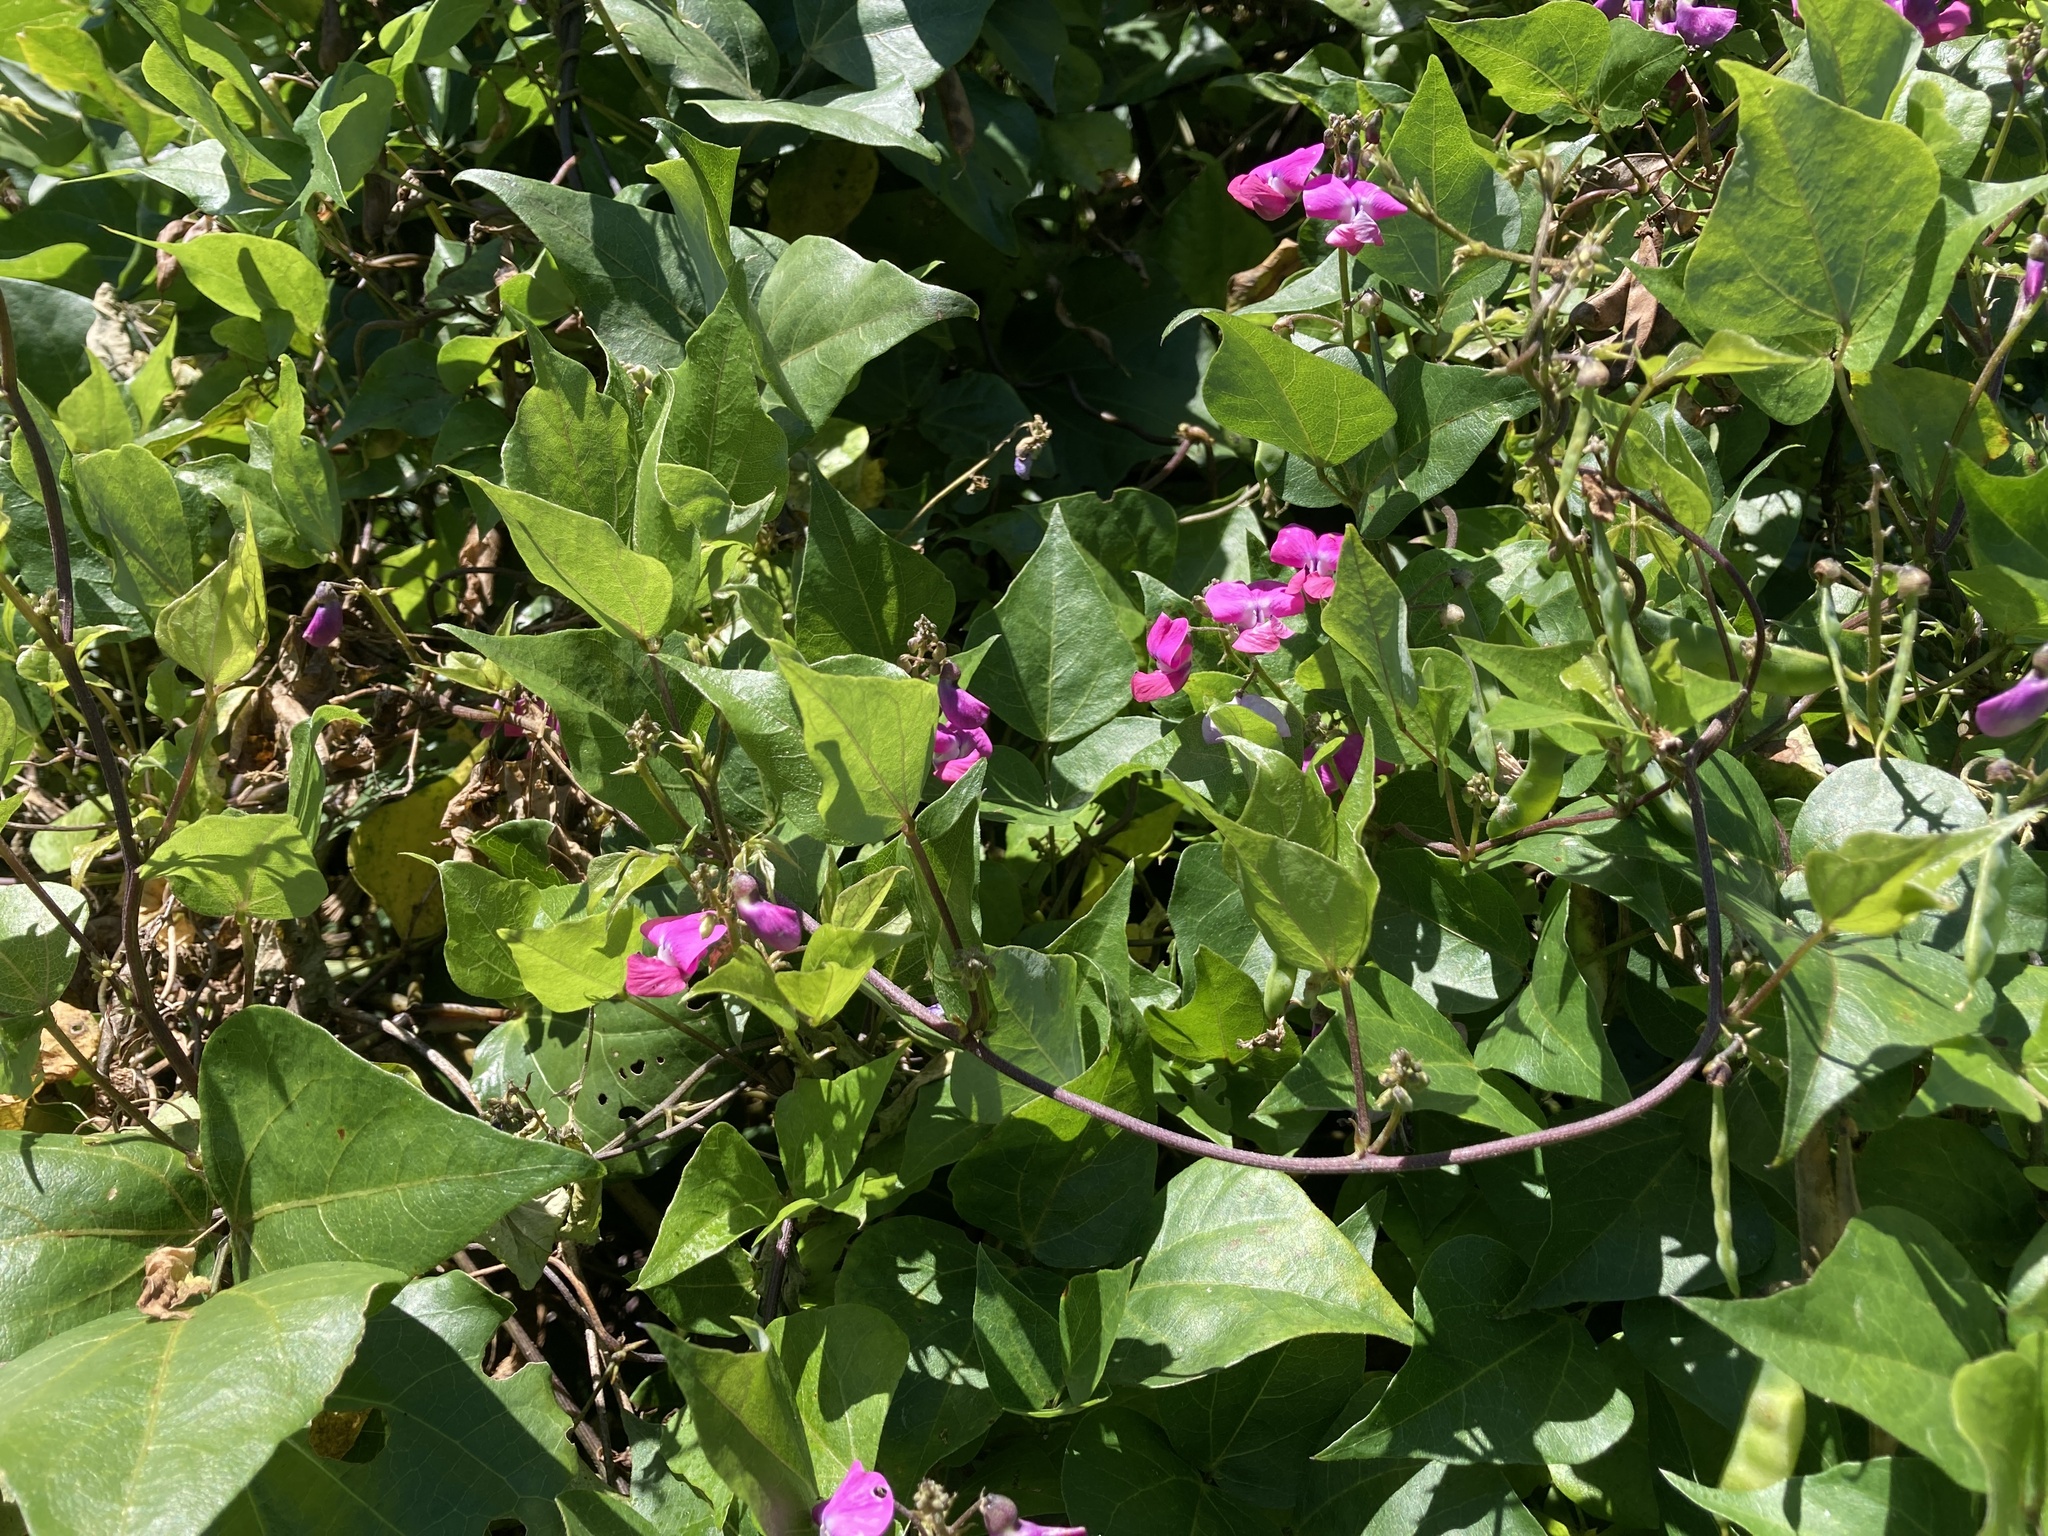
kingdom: Plantae
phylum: Tracheophyta
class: Magnoliopsida
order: Fabales
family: Fabaceae
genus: Dipogon
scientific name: Dipogon lignosus
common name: Okie bean
